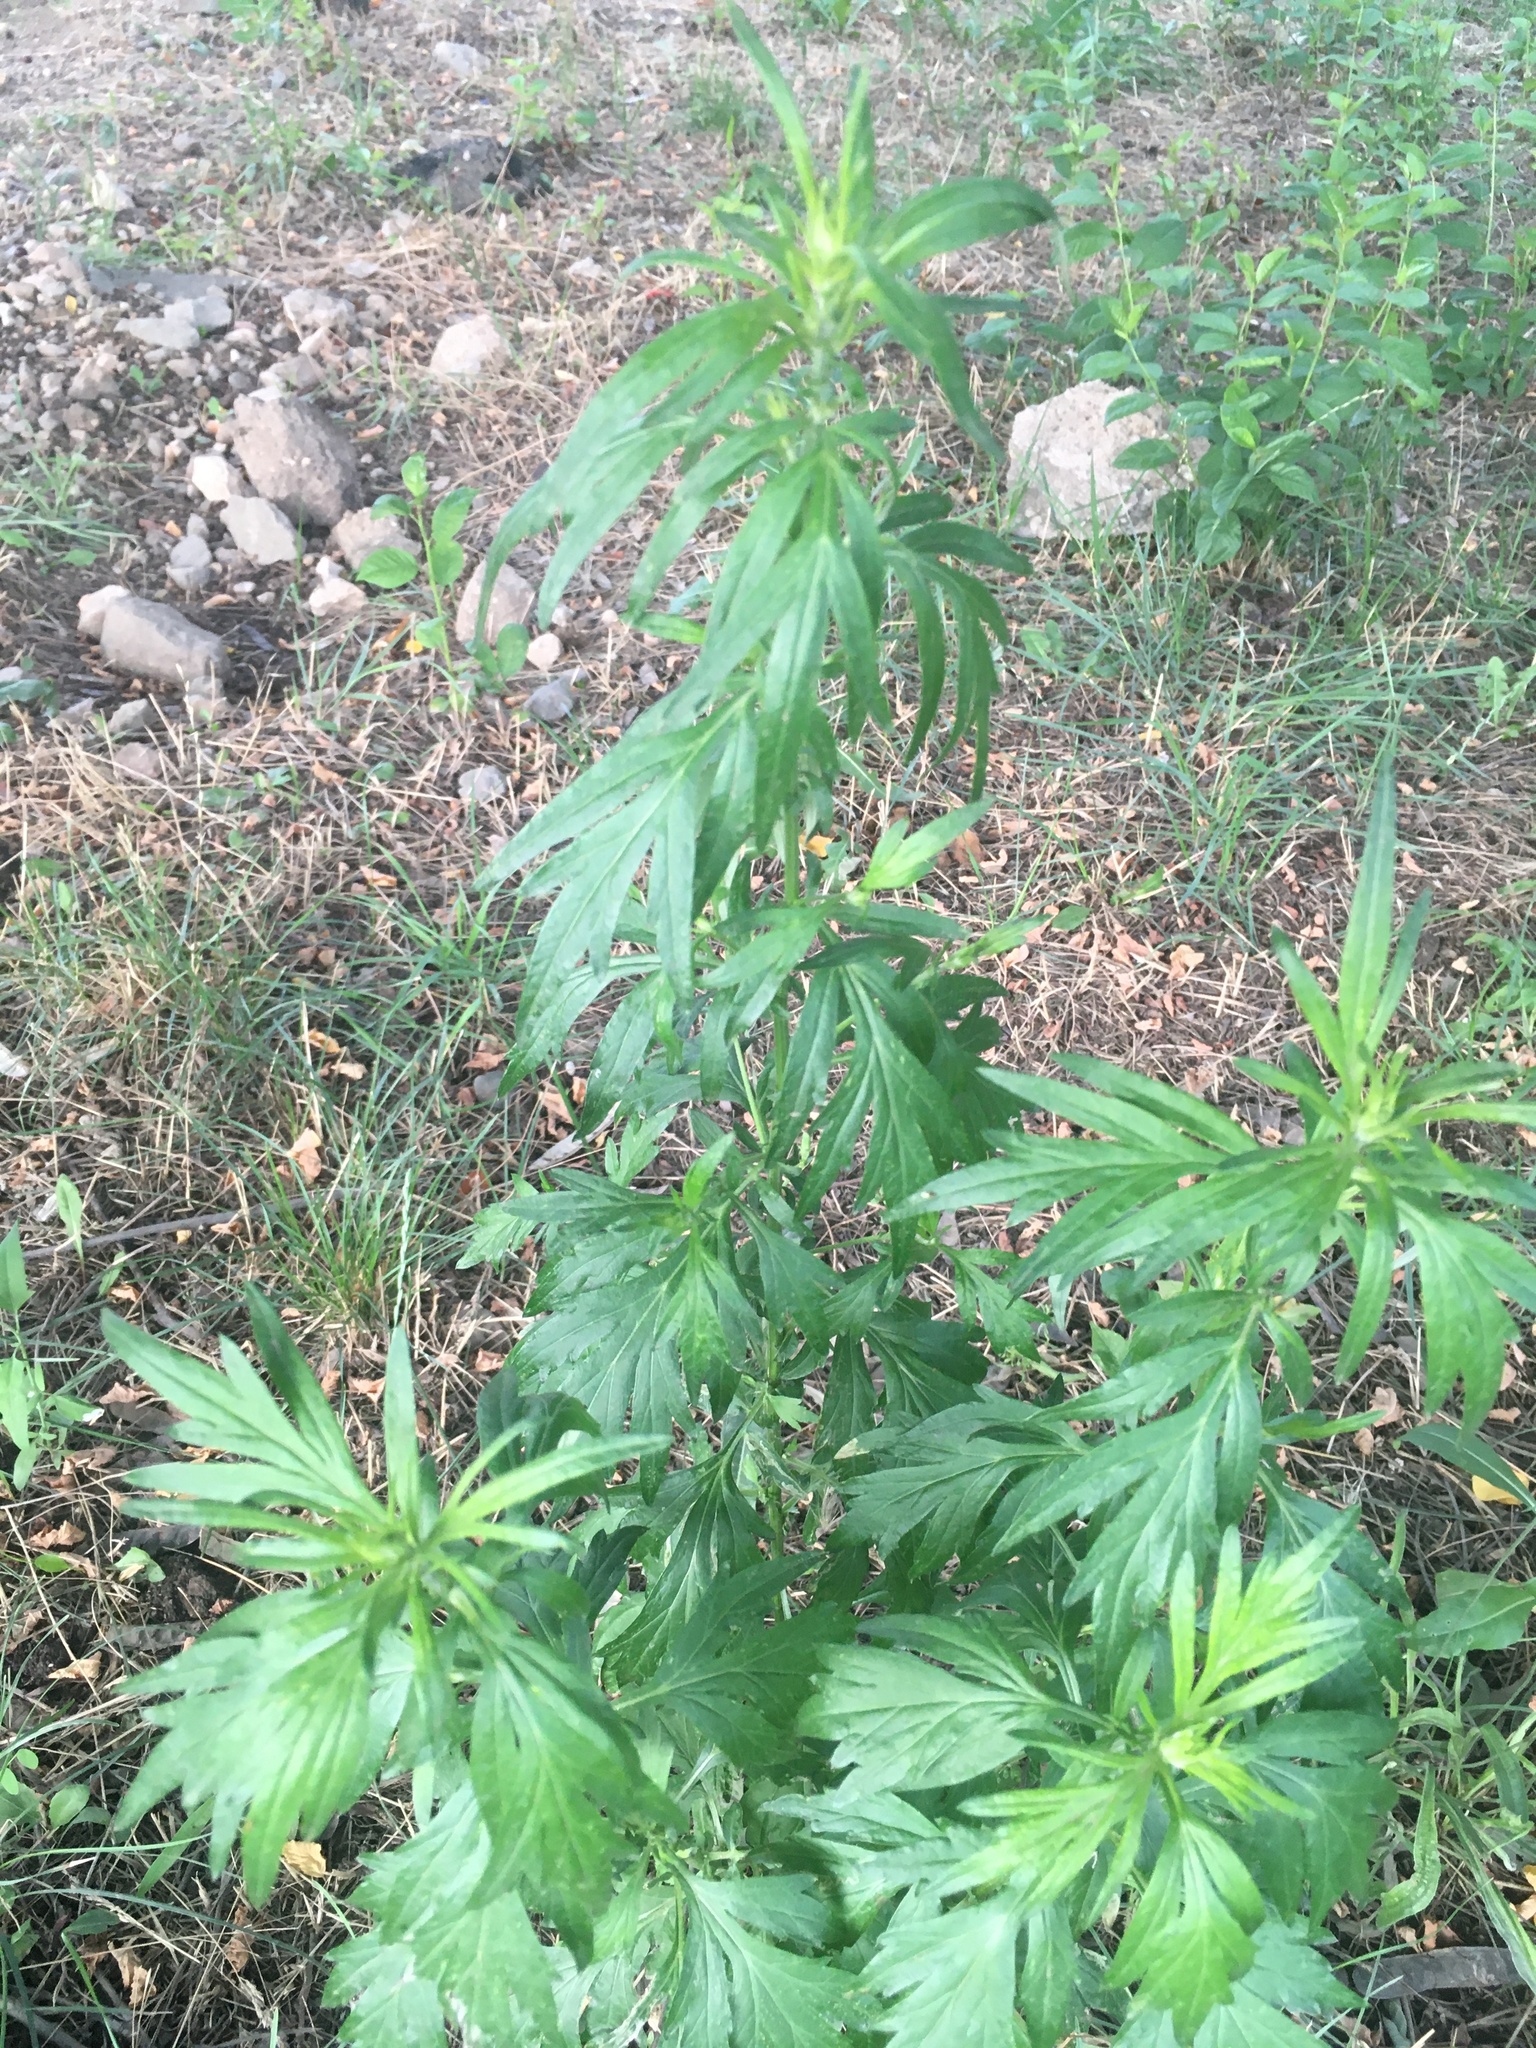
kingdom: Plantae
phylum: Tracheophyta
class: Magnoliopsida
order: Asterales
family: Asteraceae
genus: Artemisia
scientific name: Artemisia vulgaris
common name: Mugwort
